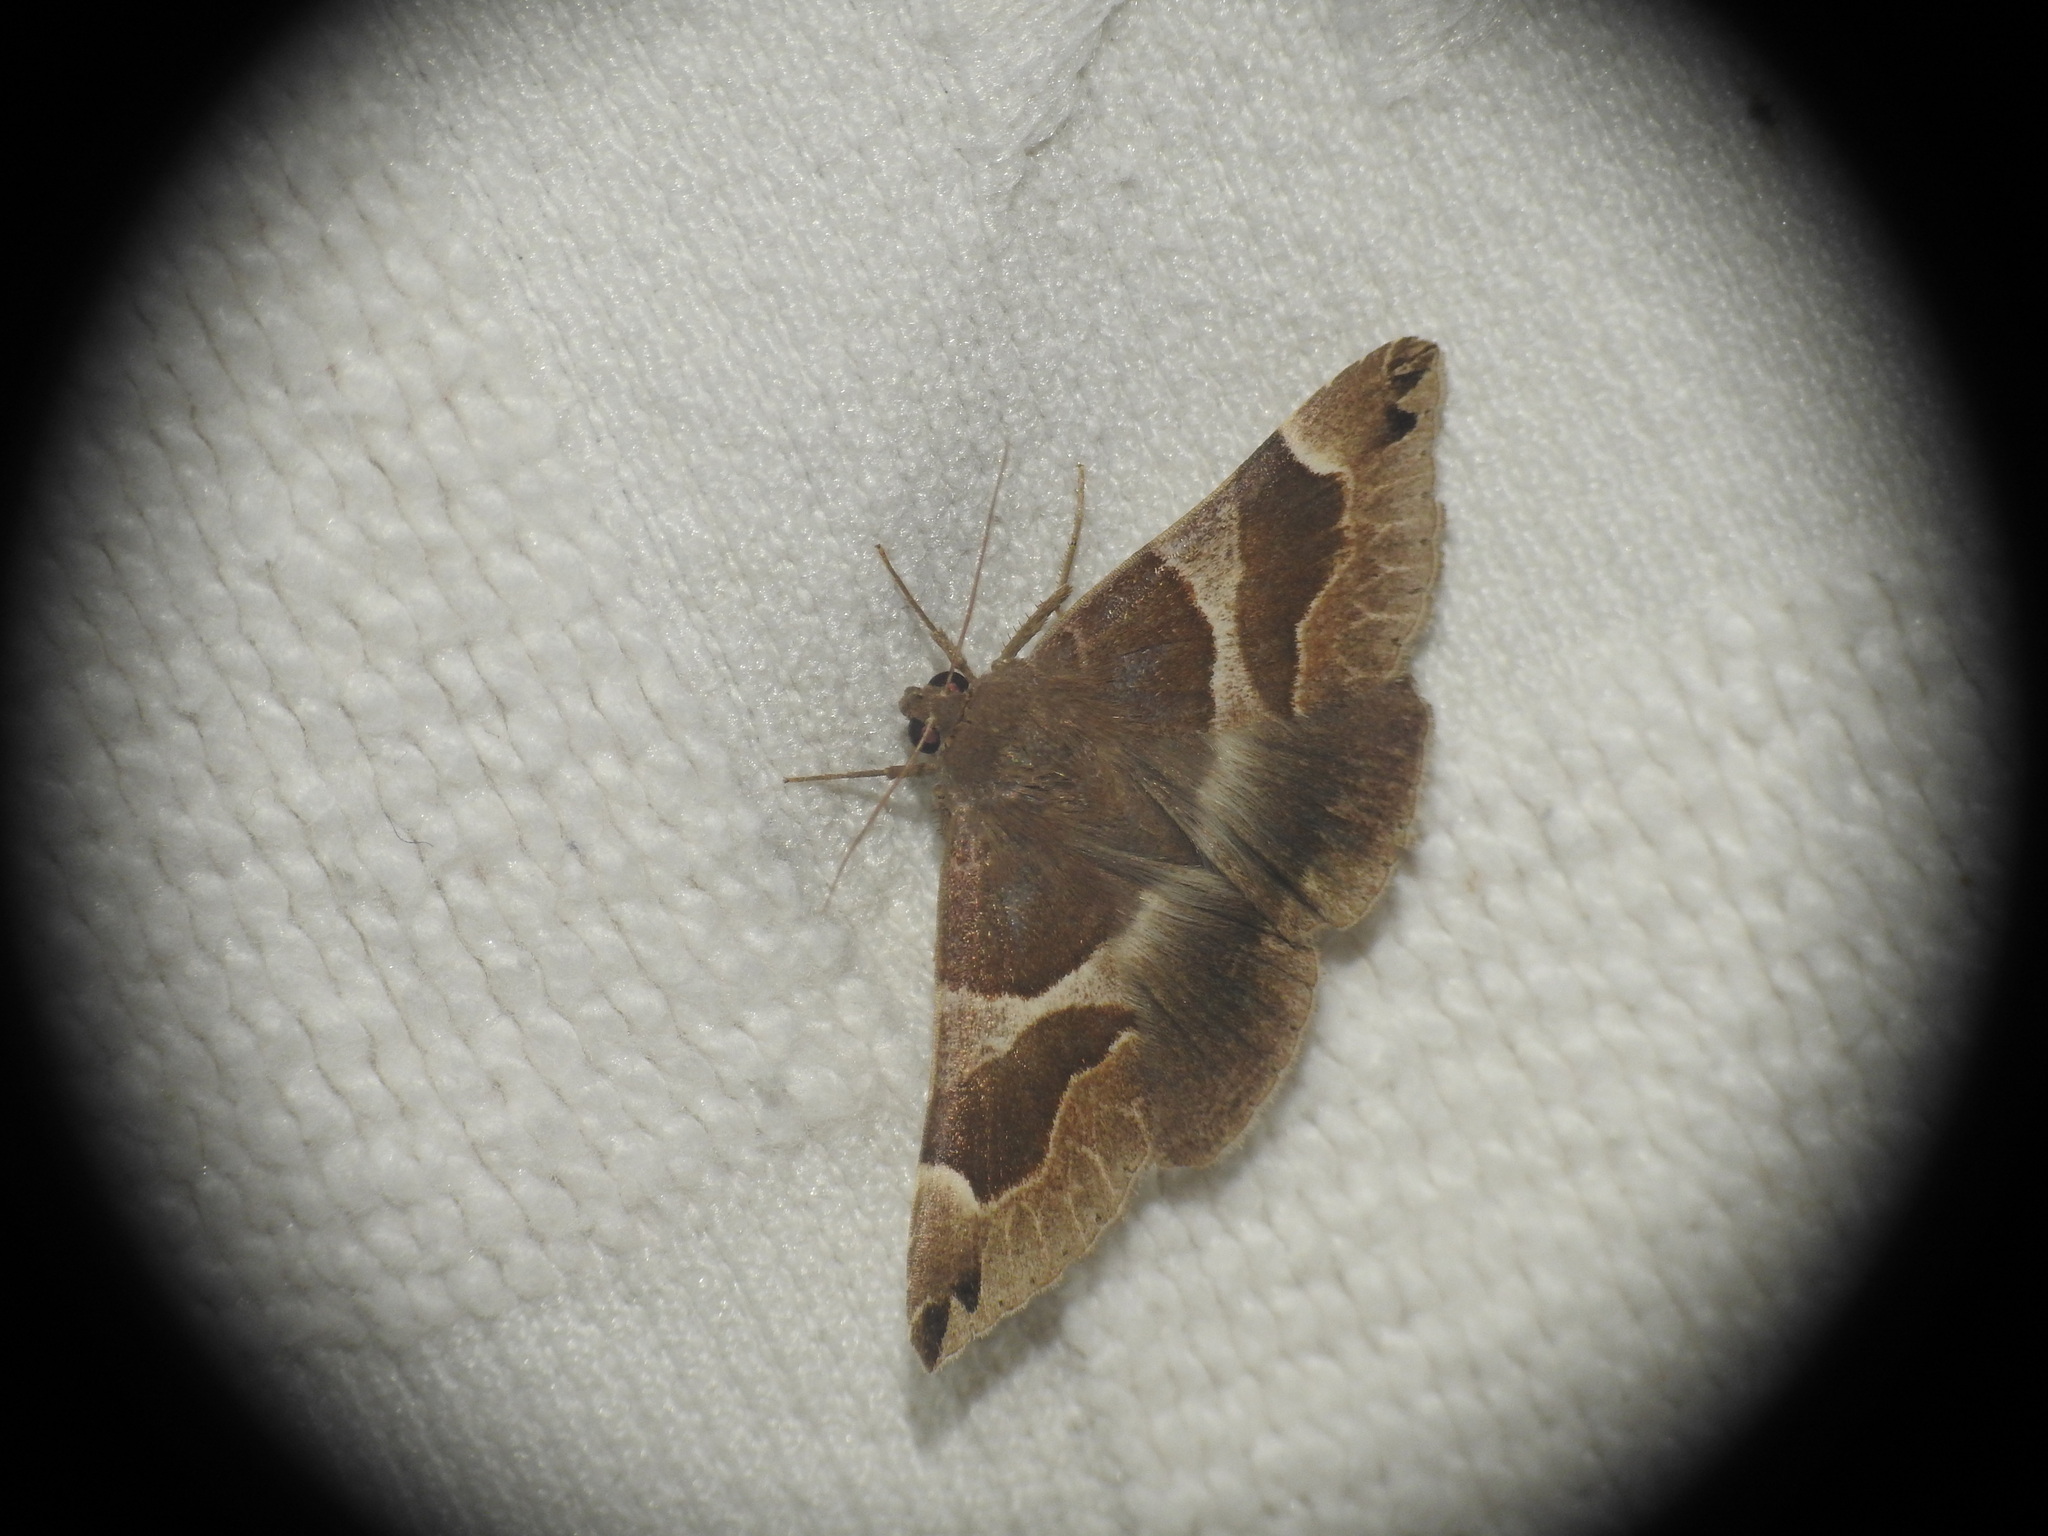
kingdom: Animalia
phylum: Arthropoda
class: Insecta
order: Lepidoptera
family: Erebidae
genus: Dysgonia
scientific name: Dysgonia algira
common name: Passenger
